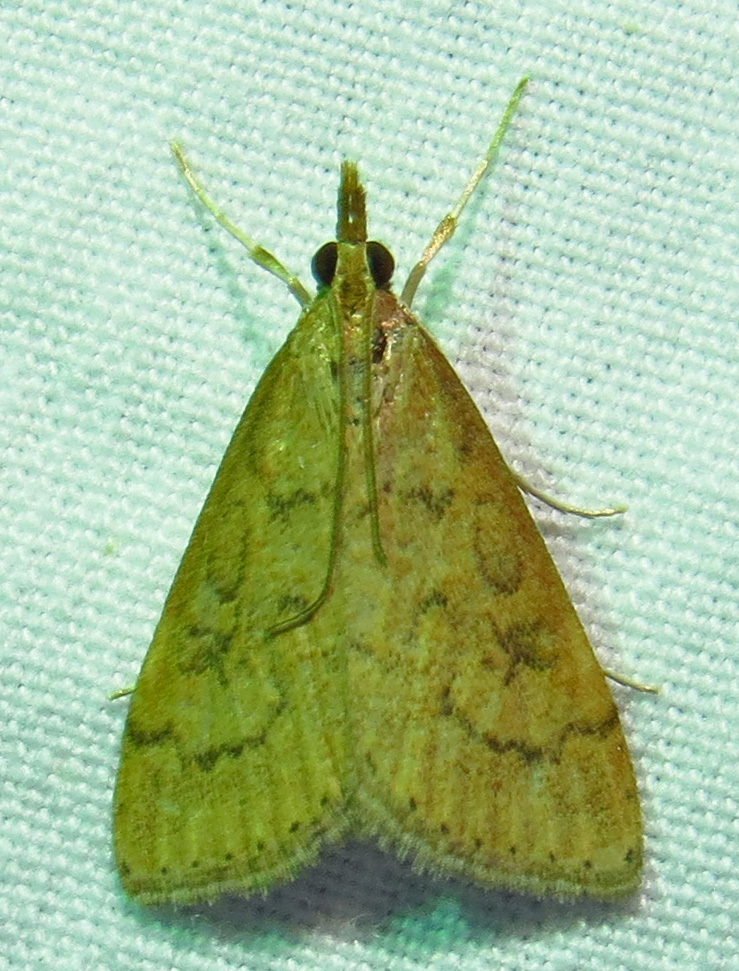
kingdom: Animalia
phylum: Arthropoda
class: Insecta
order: Lepidoptera
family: Crambidae
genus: Udea
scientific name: Udea rubigalis
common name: Celery leaftier moth
